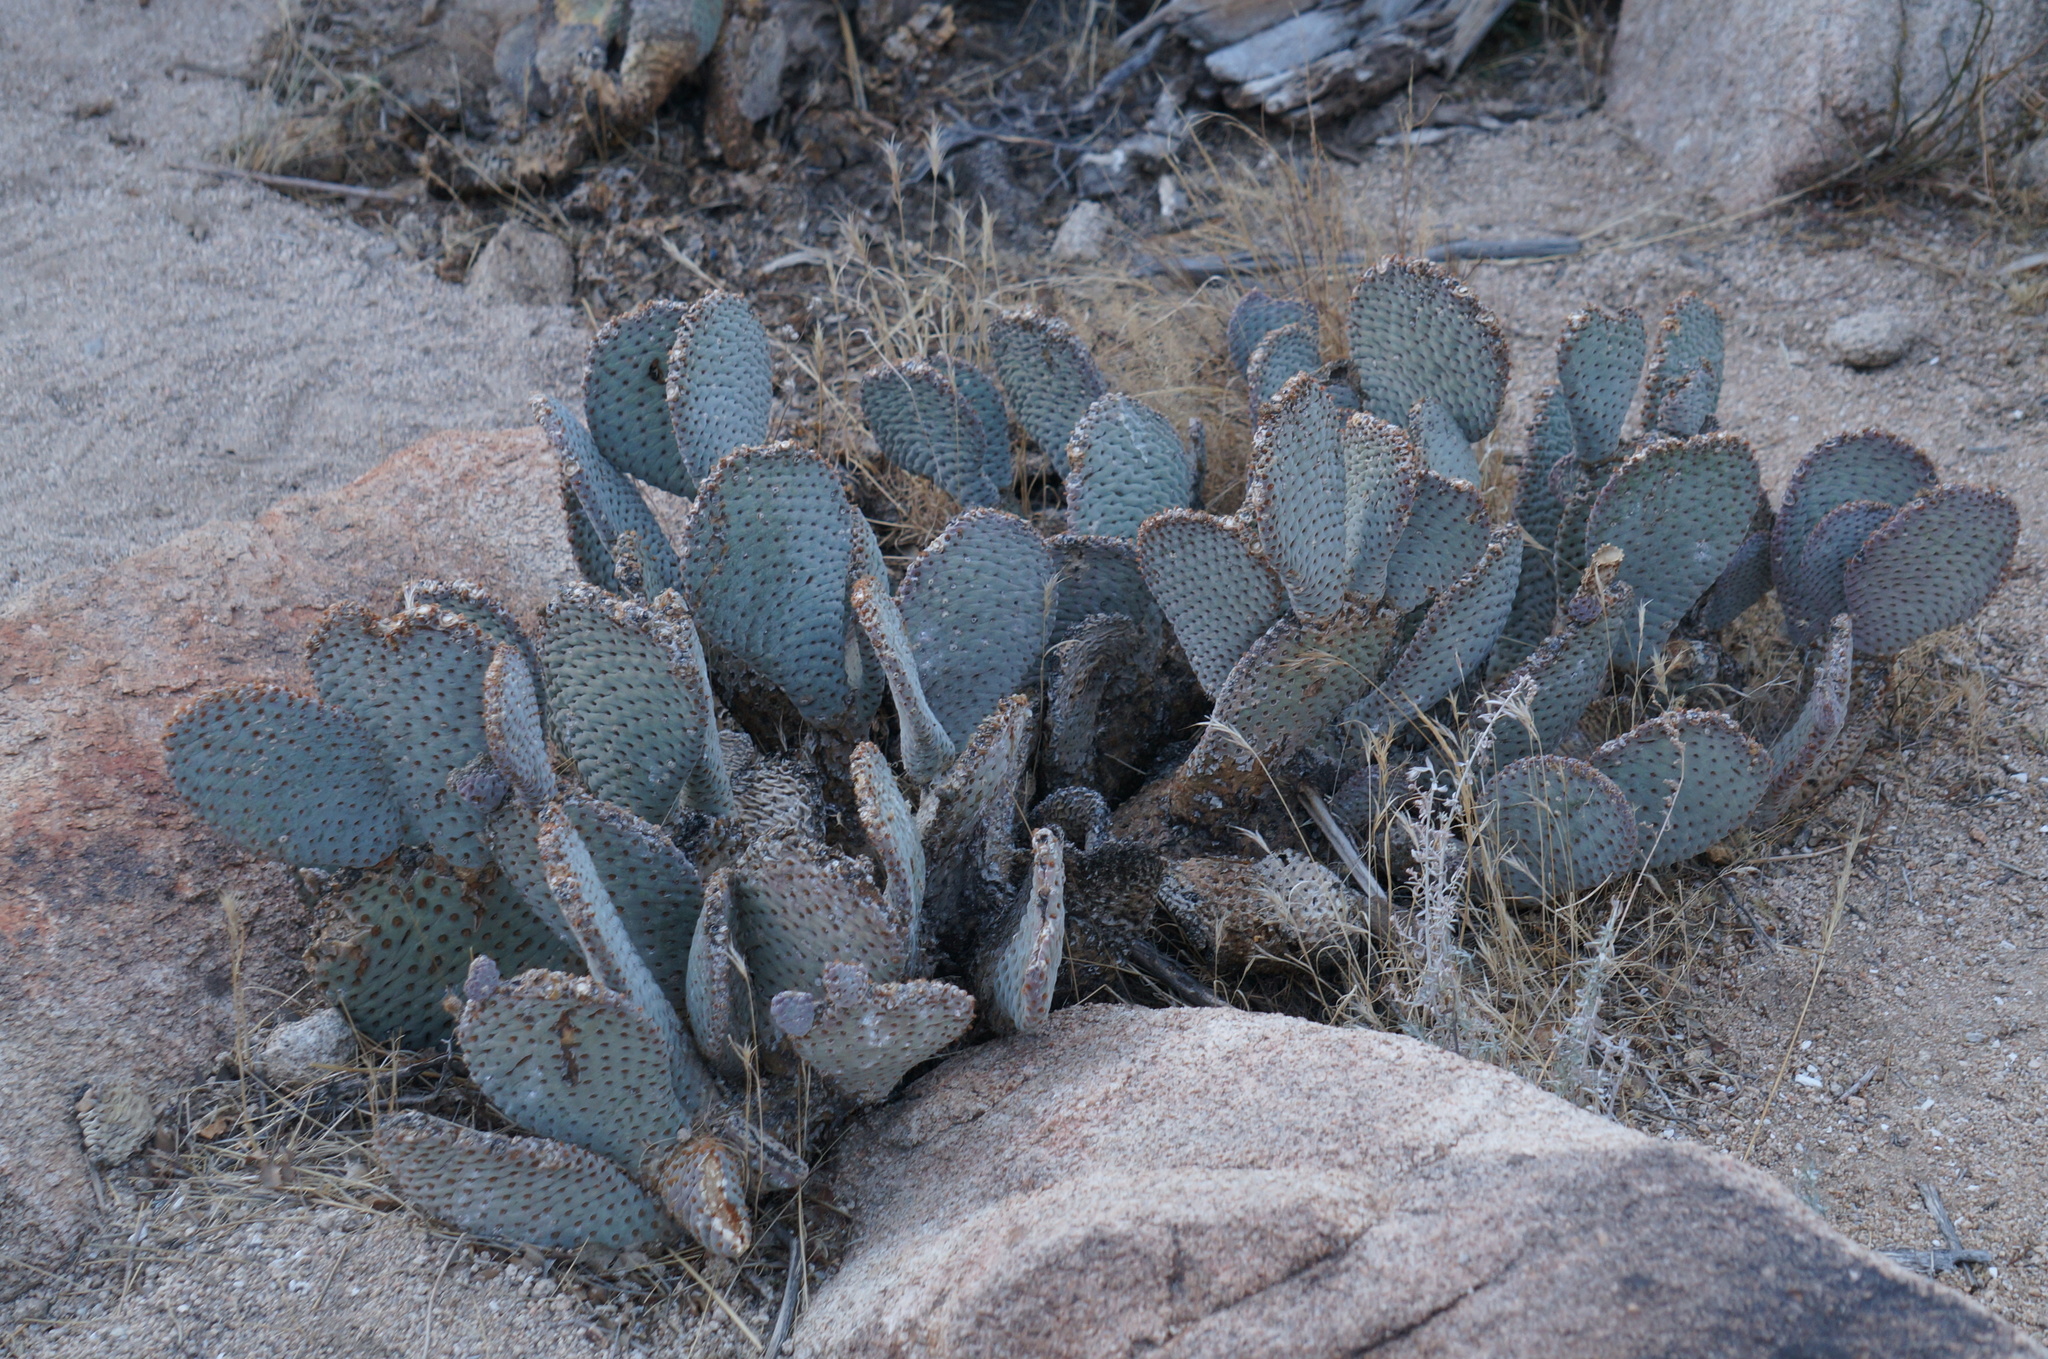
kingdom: Plantae
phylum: Tracheophyta
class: Magnoliopsida
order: Caryophyllales
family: Cactaceae
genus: Opuntia
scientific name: Opuntia basilaris
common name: Beavertail prickly-pear
